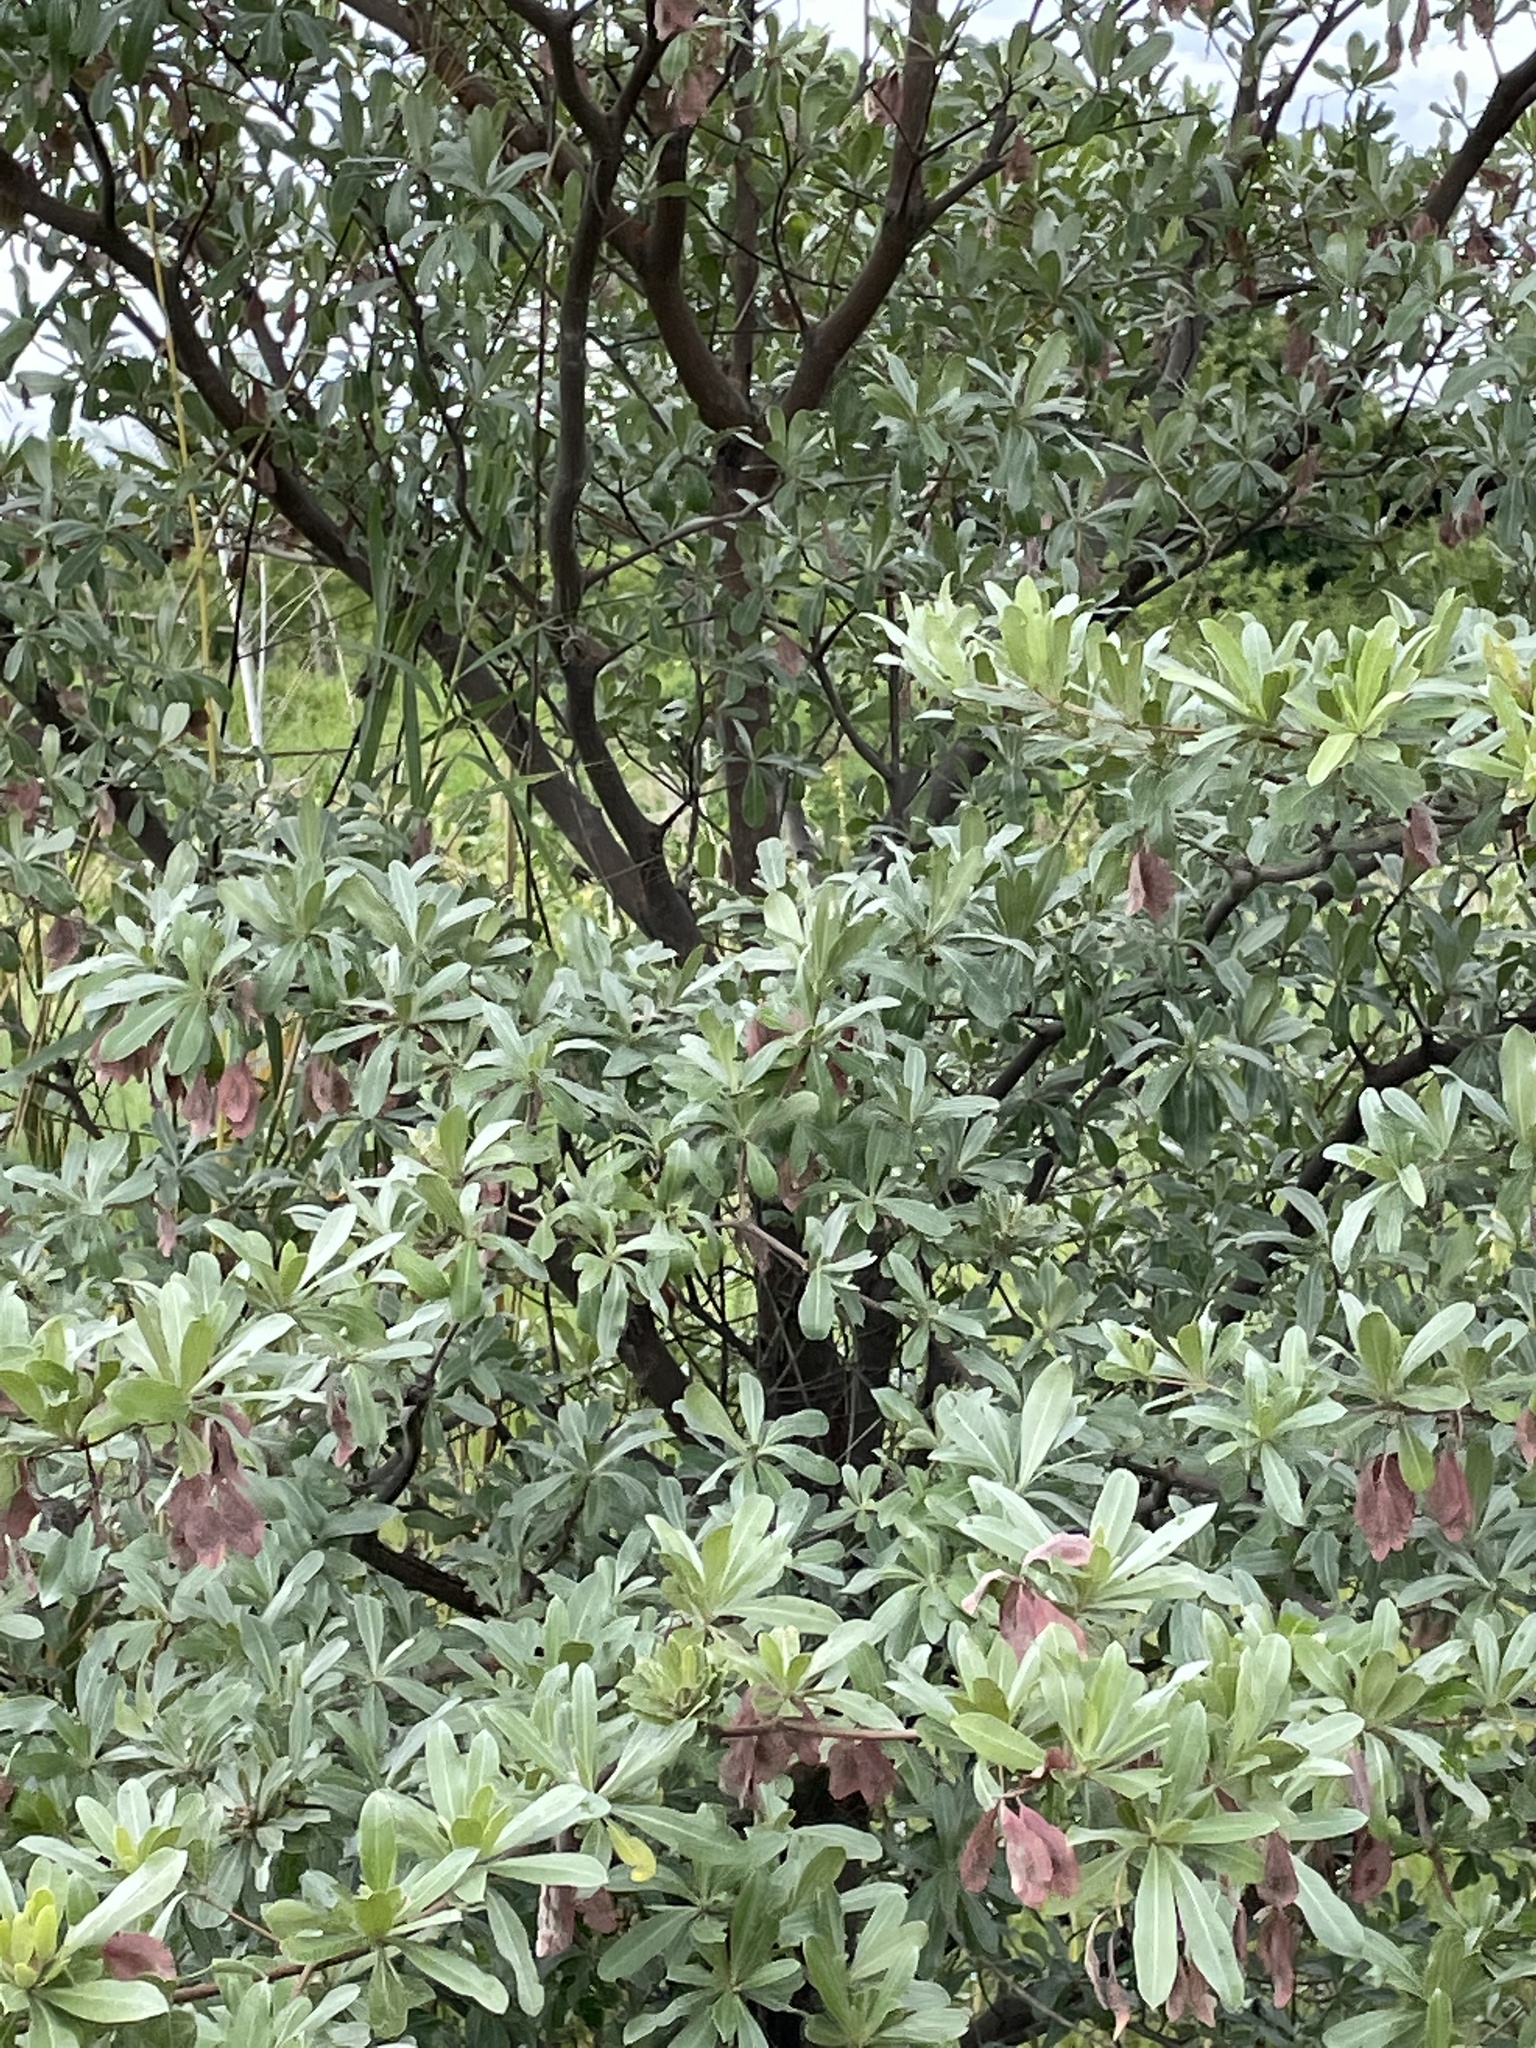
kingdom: Plantae
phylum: Tracheophyta
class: Magnoliopsida
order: Myrtales
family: Combretaceae
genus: Terminalia
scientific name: Terminalia sericea
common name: Clusterleaf
